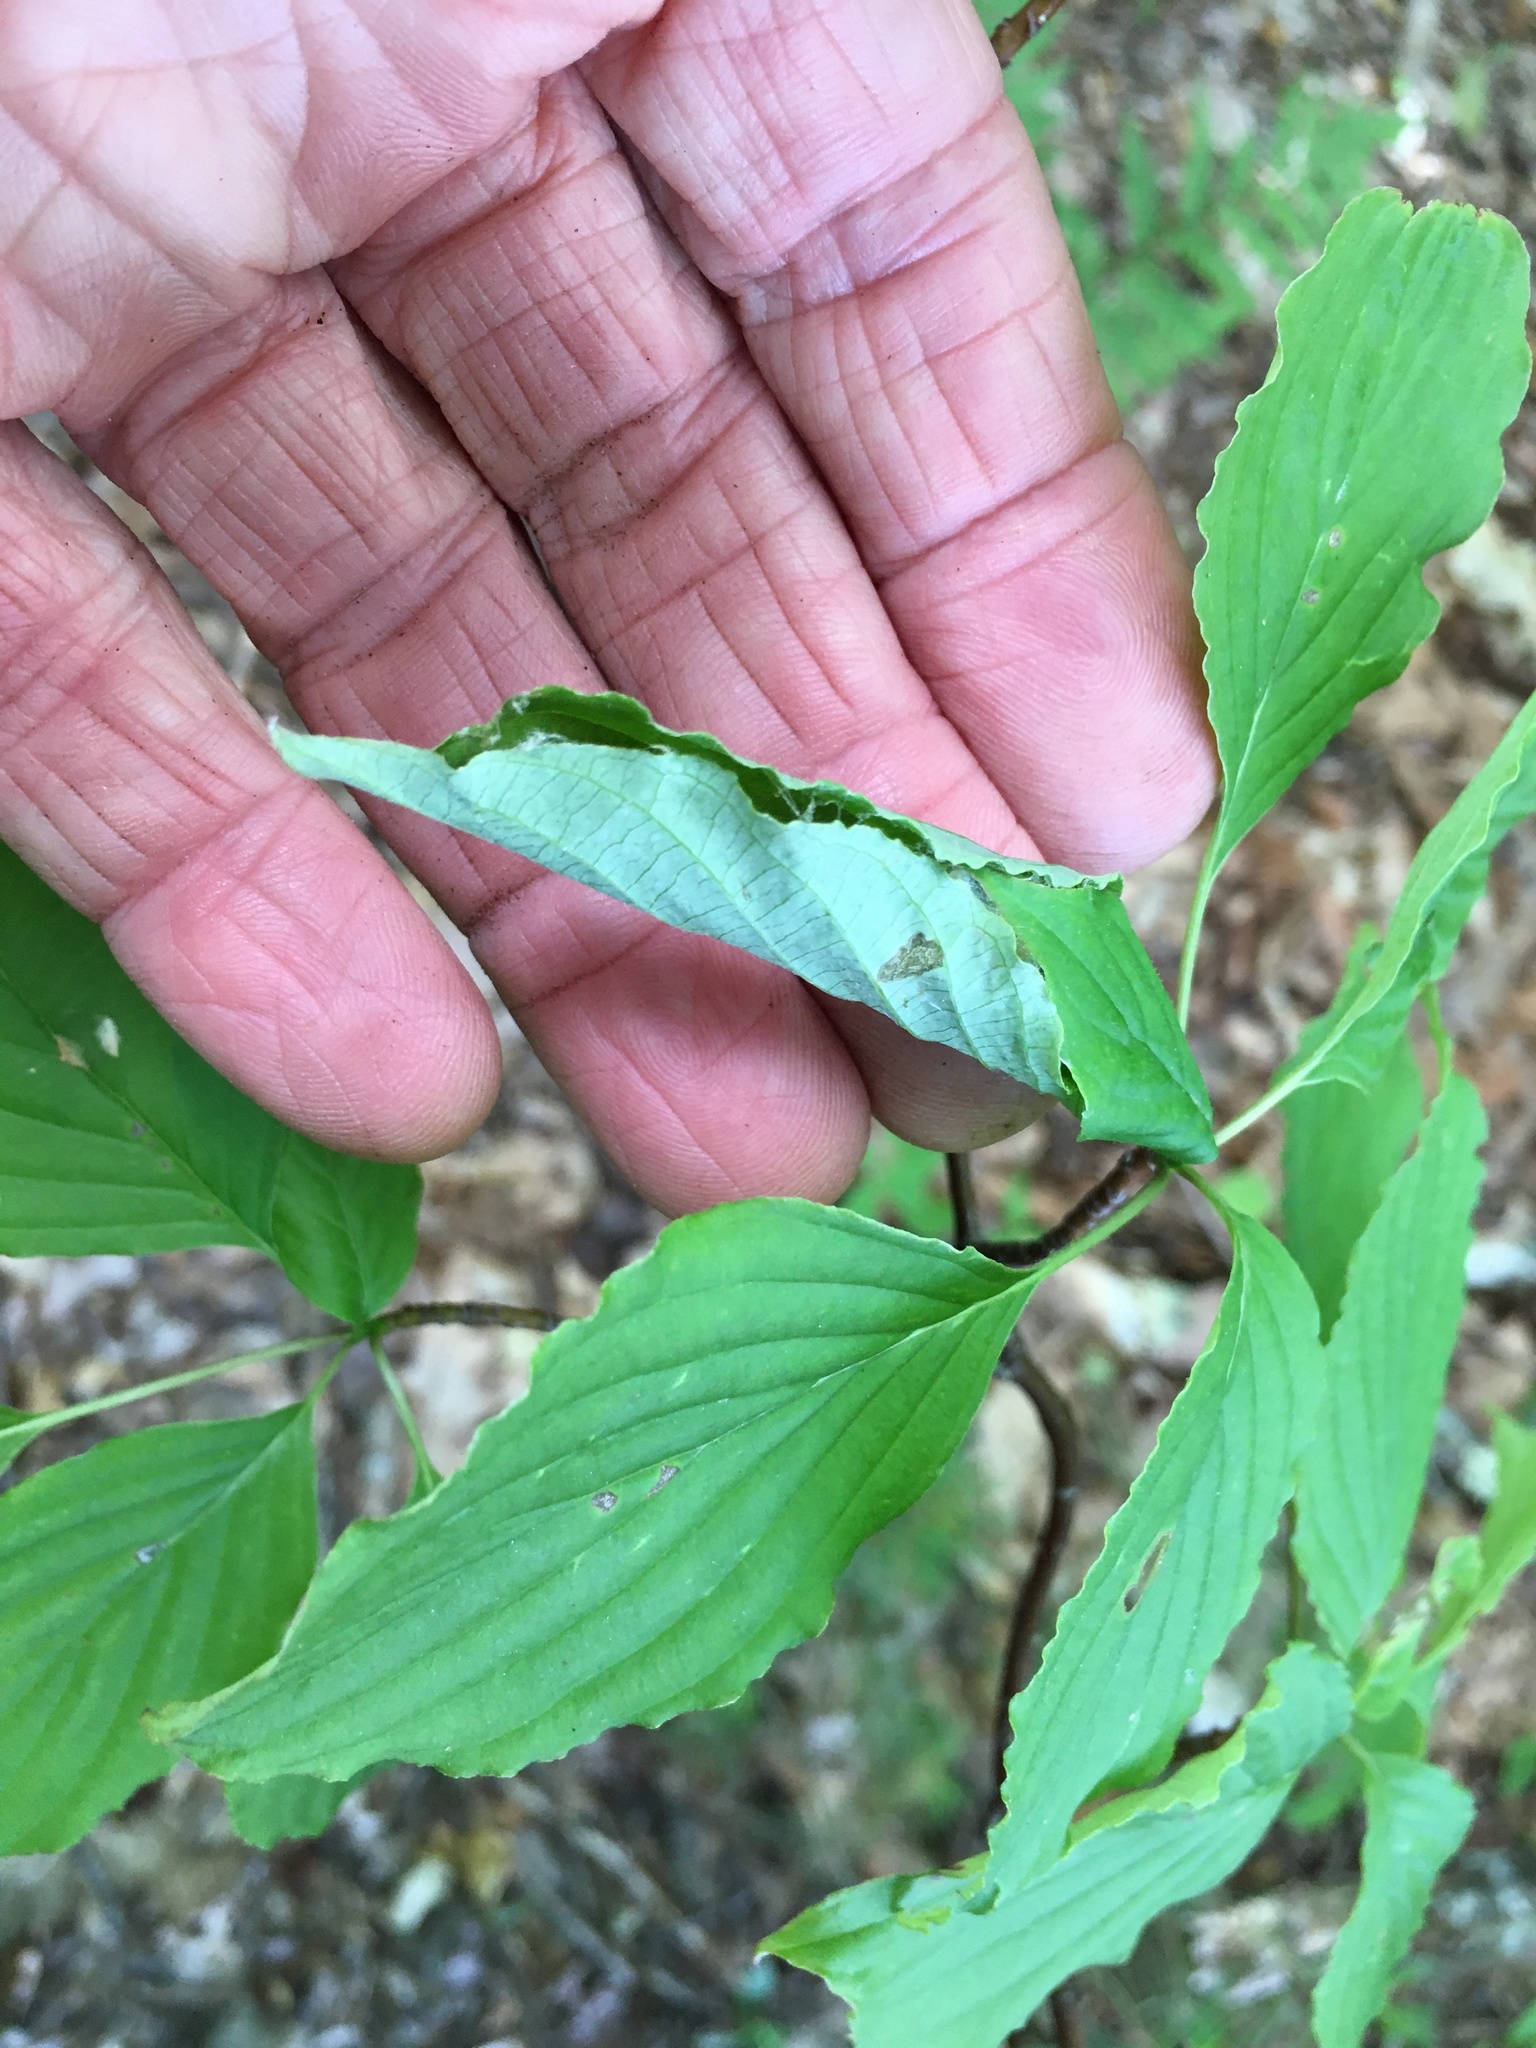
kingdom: Animalia
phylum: Arthropoda
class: Insecta
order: Lepidoptera
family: Drepanidae
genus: Euthyatira
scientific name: Euthyatira pudens
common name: Dogwood thyatirid moth
